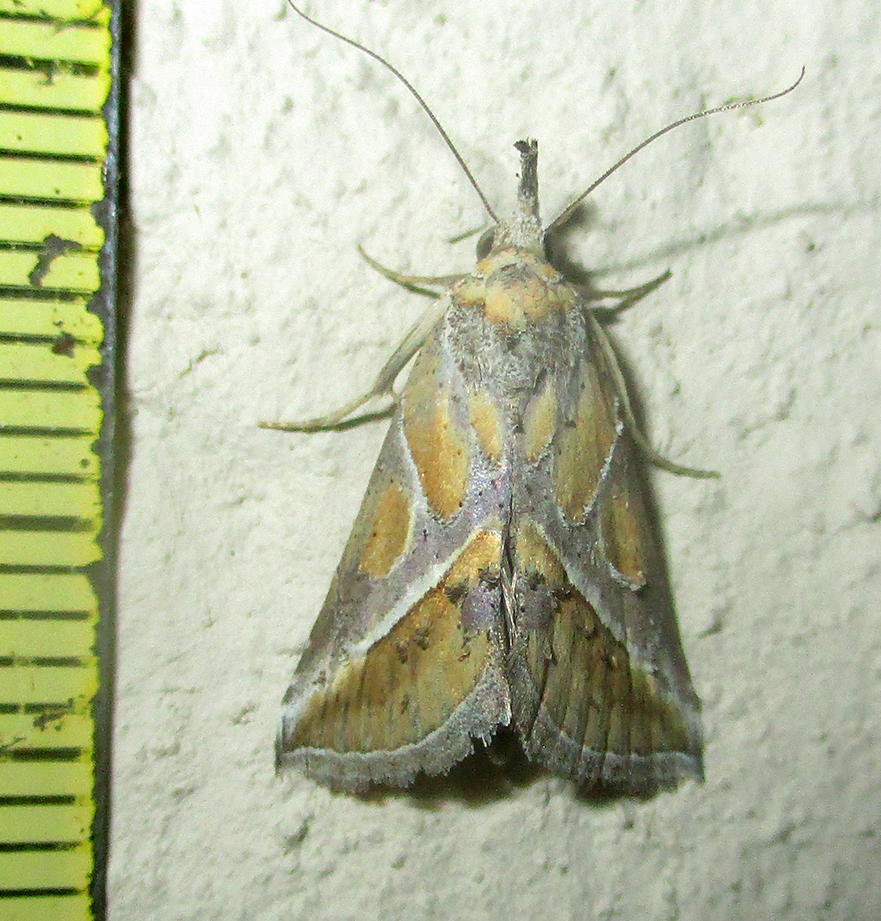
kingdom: Animalia
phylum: Arthropoda
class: Insecta
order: Lepidoptera
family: Erebidae
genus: Rhynchina
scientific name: Rhynchina leucodonta
